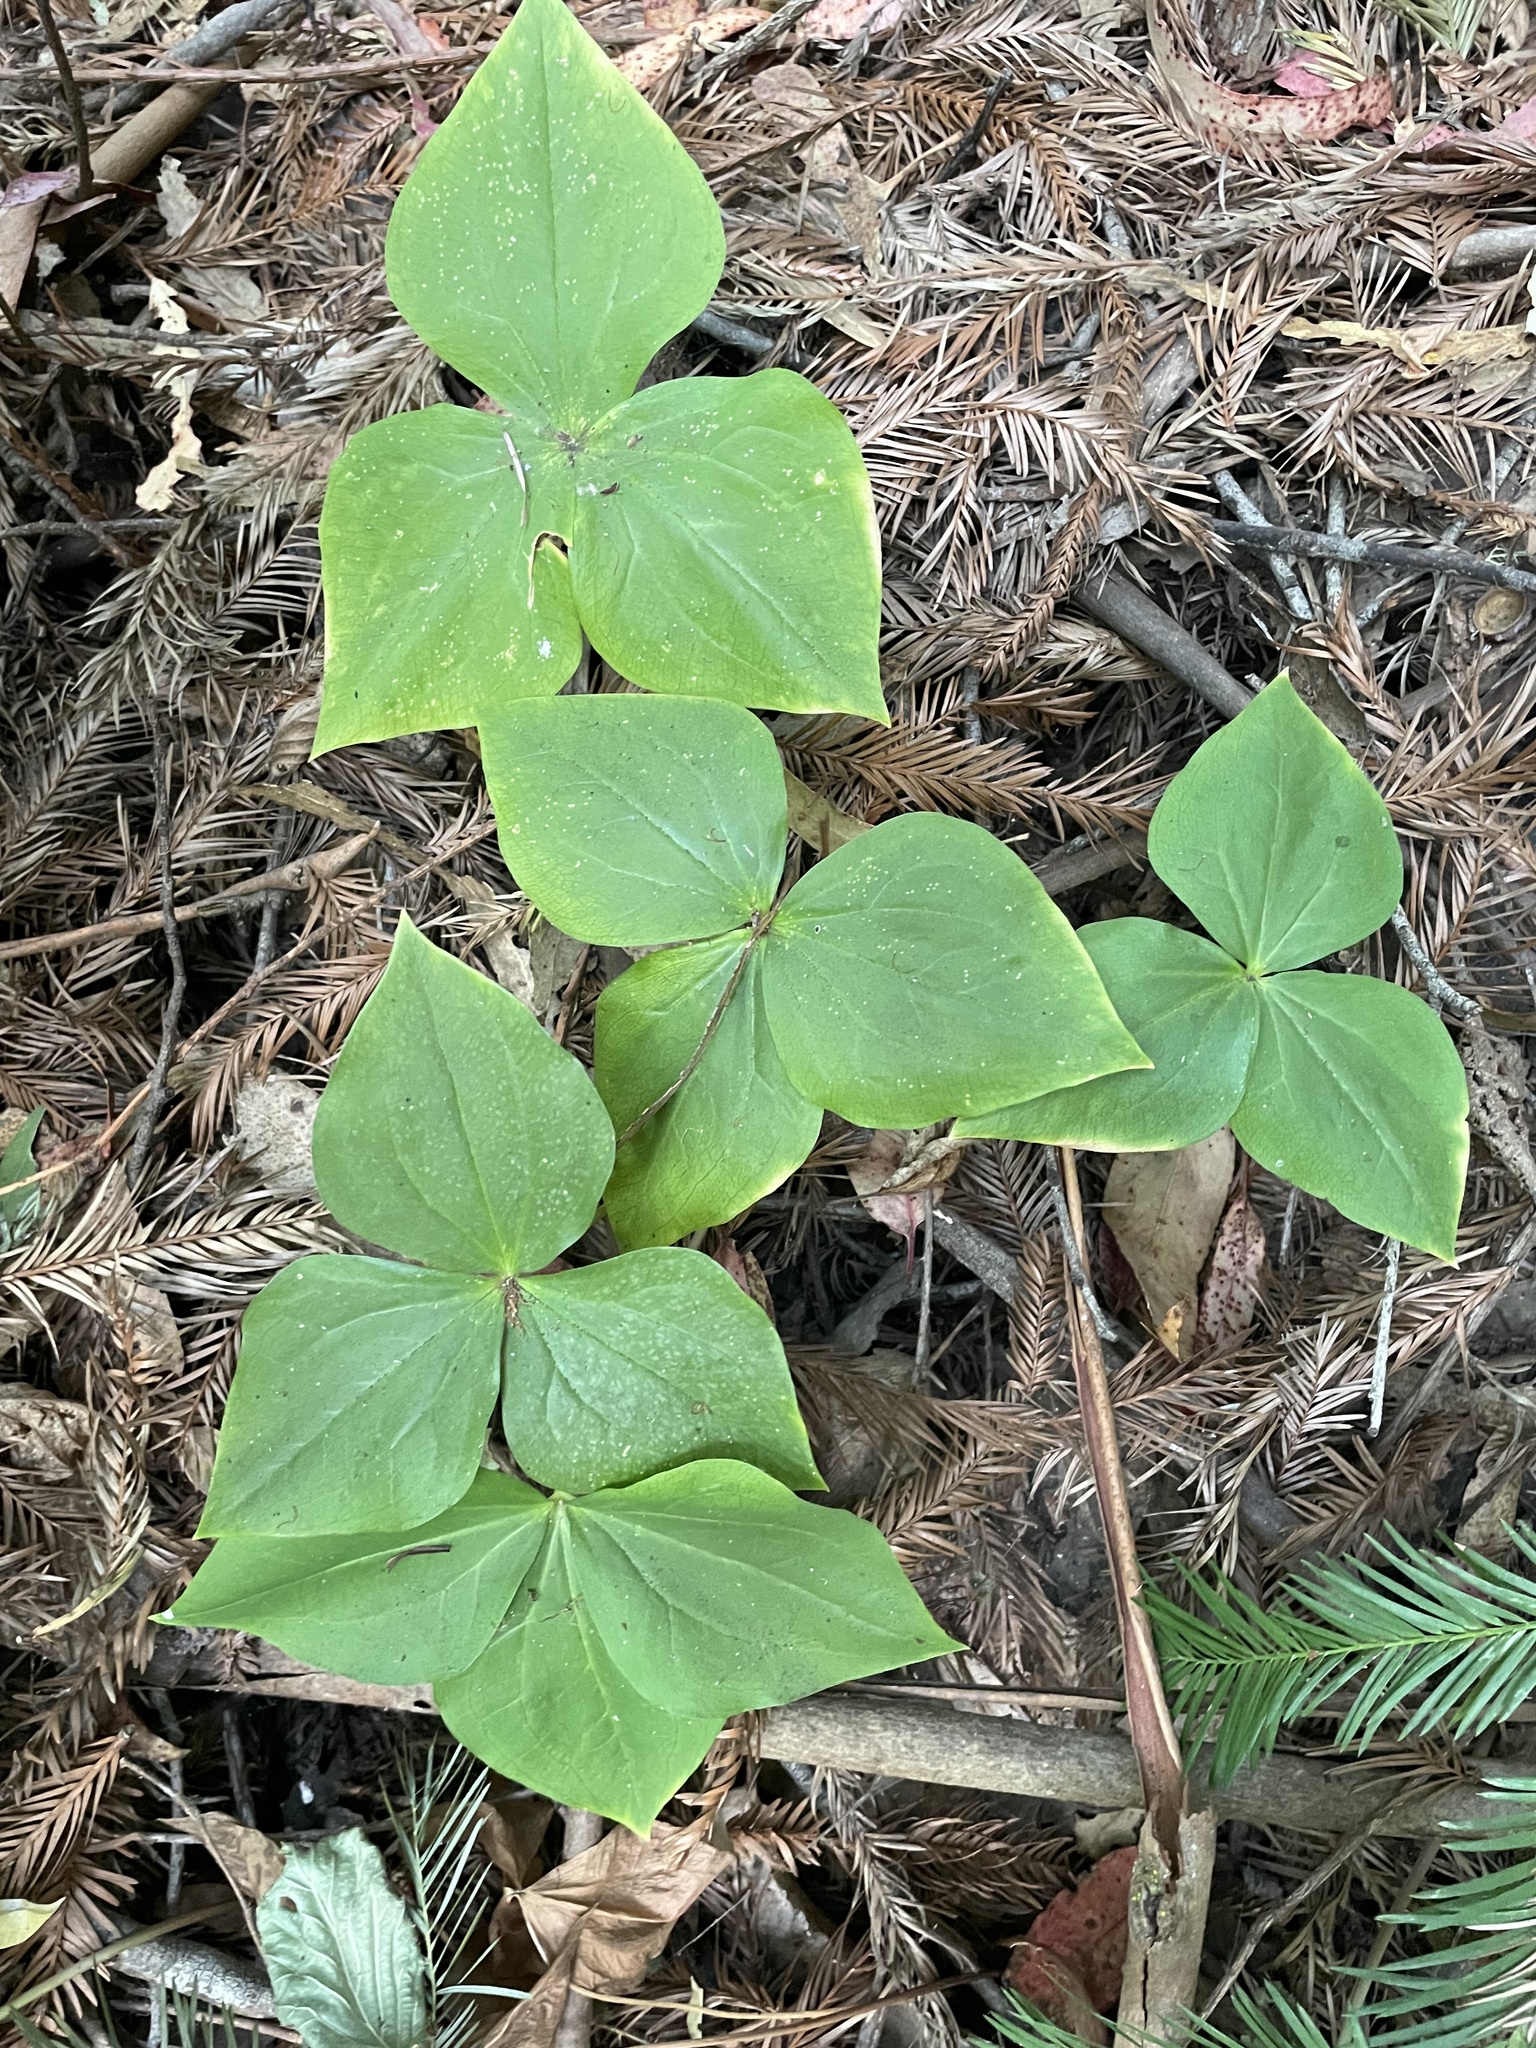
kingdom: Plantae
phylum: Tracheophyta
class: Liliopsida
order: Liliales
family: Melanthiaceae
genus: Trillium
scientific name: Trillium ovatum
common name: Pacific trillium
